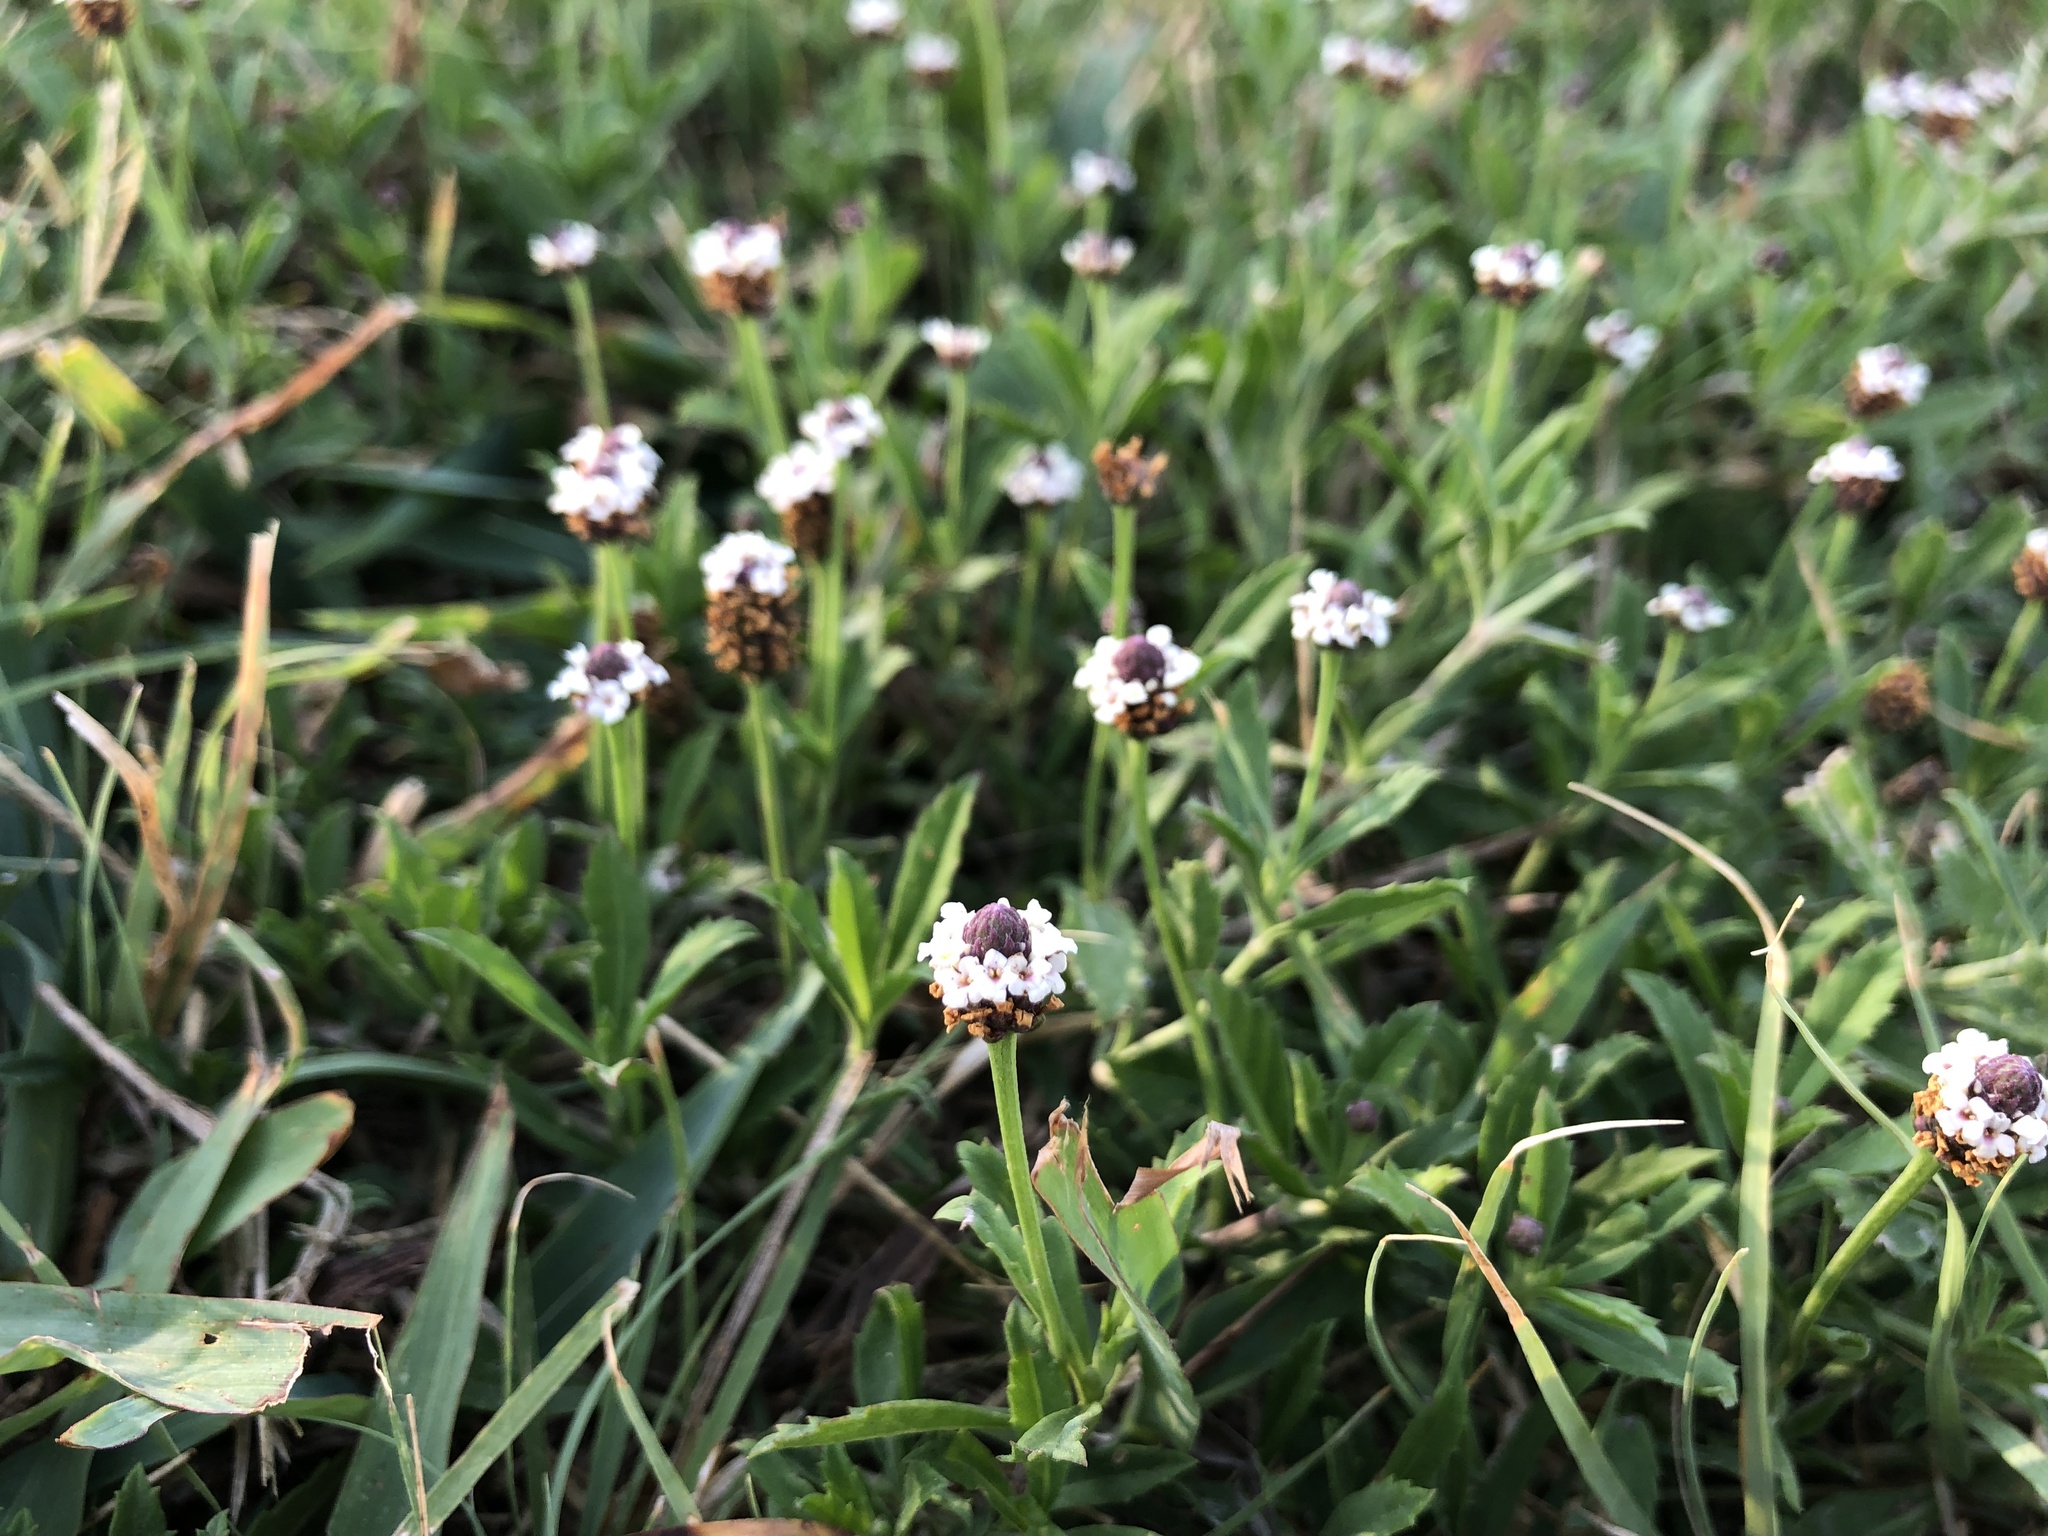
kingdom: Plantae
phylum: Tracheophyta
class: Magnoliopsida
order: Lamiales
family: Verbenaceae
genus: Phyla
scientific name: Phyla nodiflora
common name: Frogfruit
